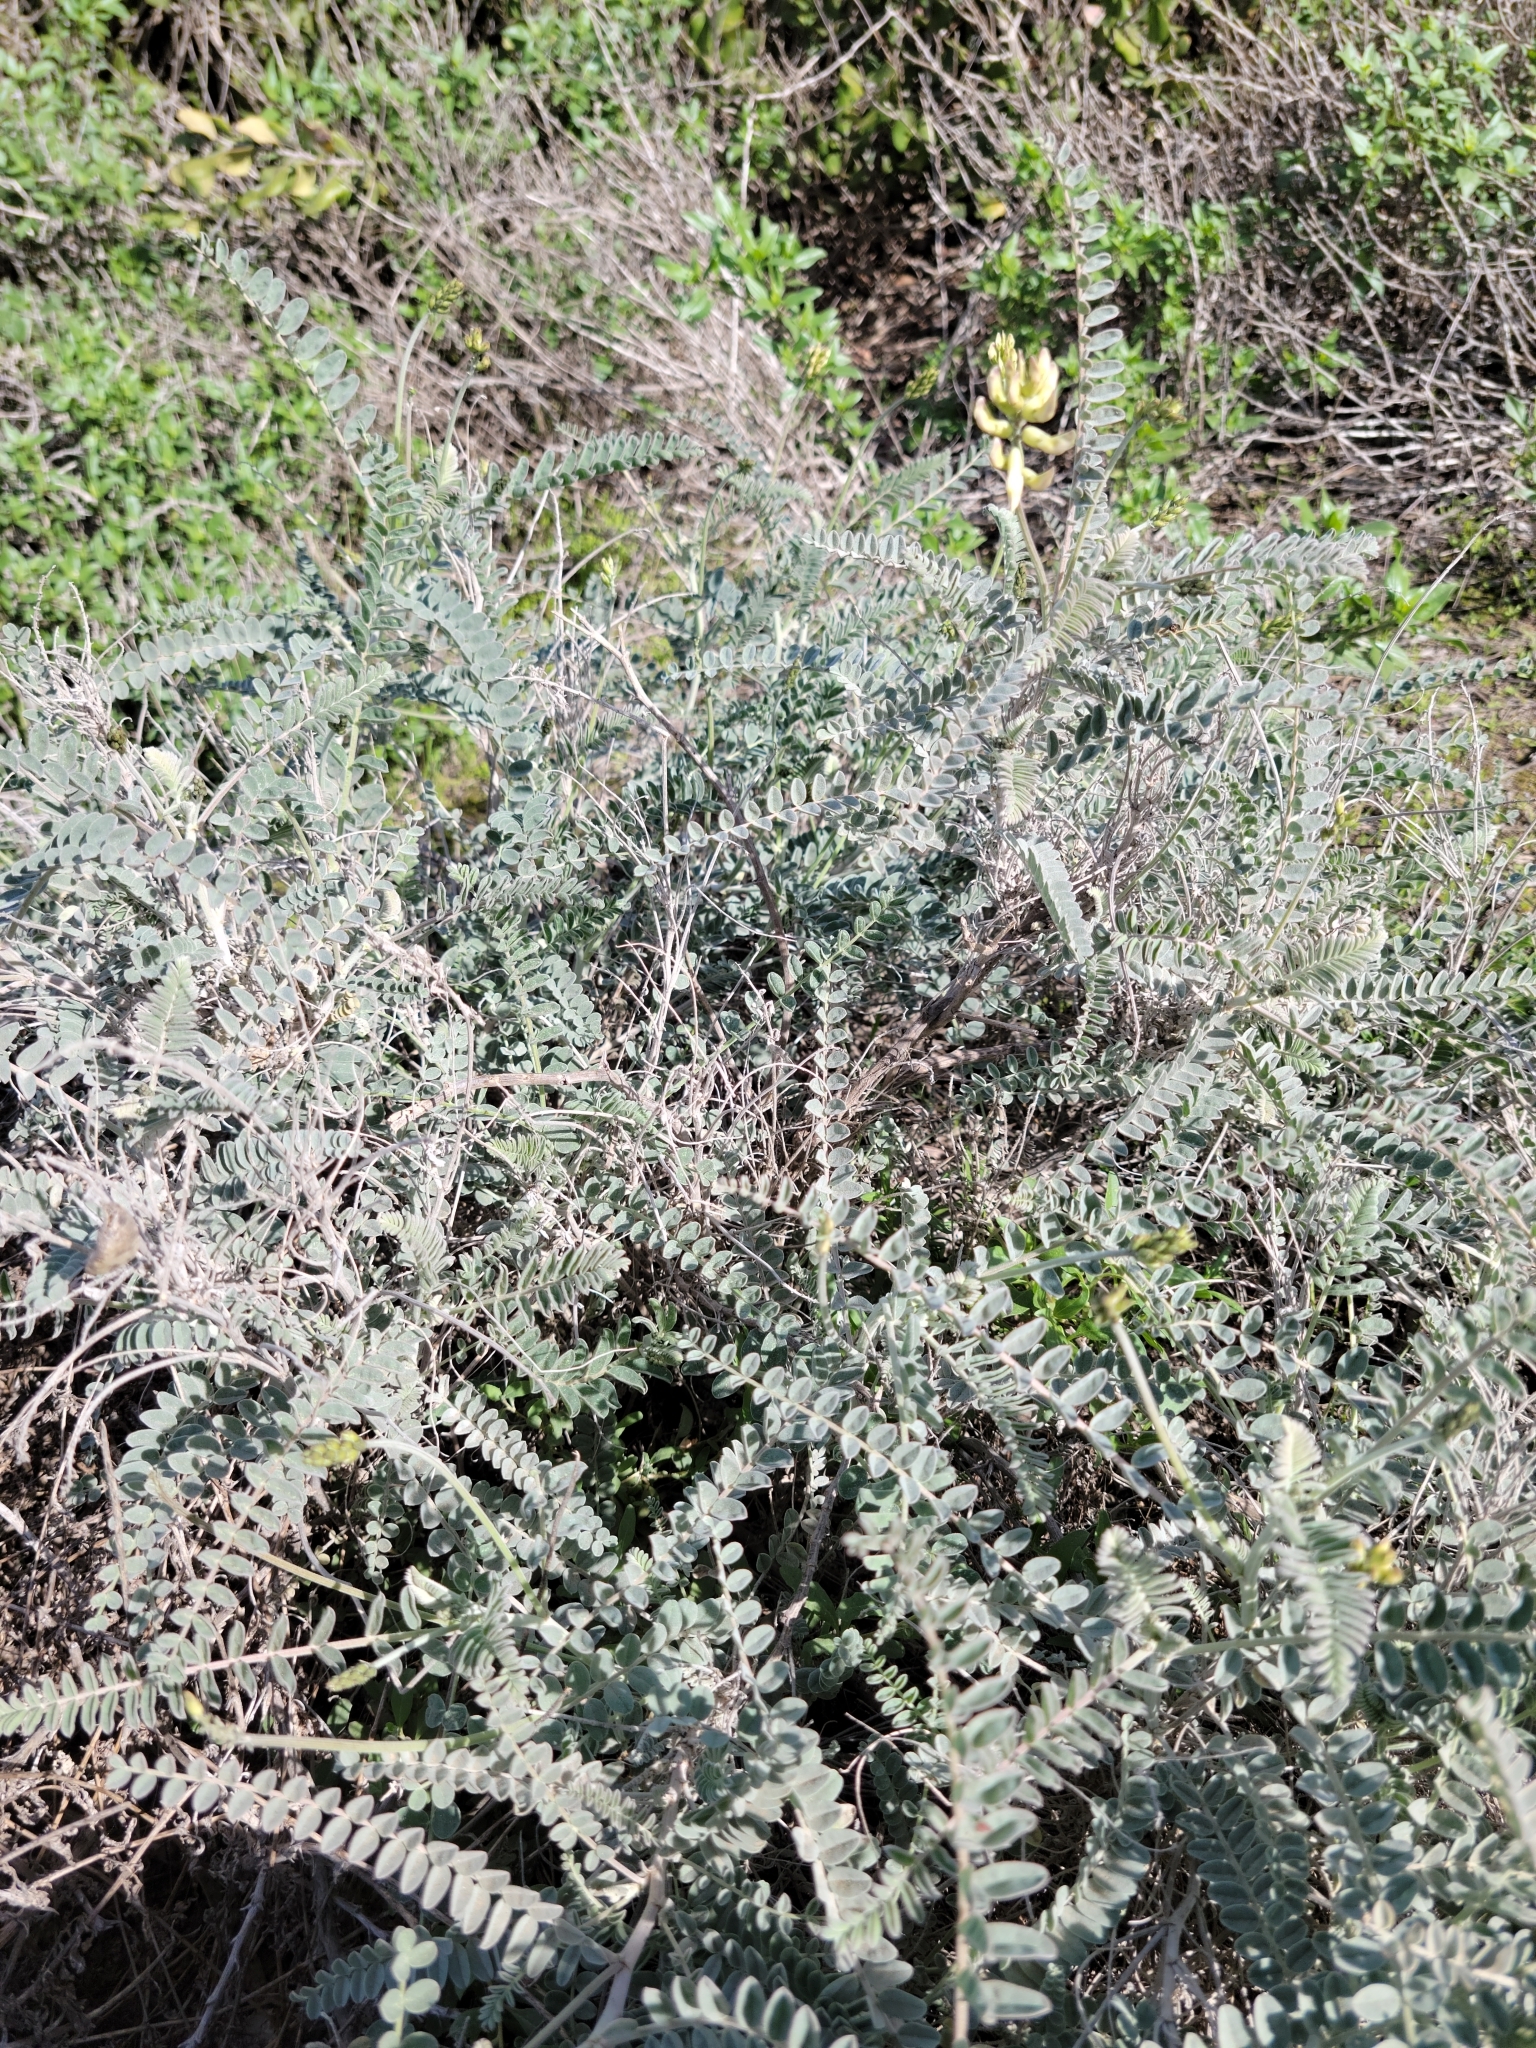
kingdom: Plantae
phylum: Tracheophyta
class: Magnoliopsida
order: Fabales
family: Fabaceae
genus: Astragalus
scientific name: Astragalus trichopodus
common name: Santa barbara milk-vetch
